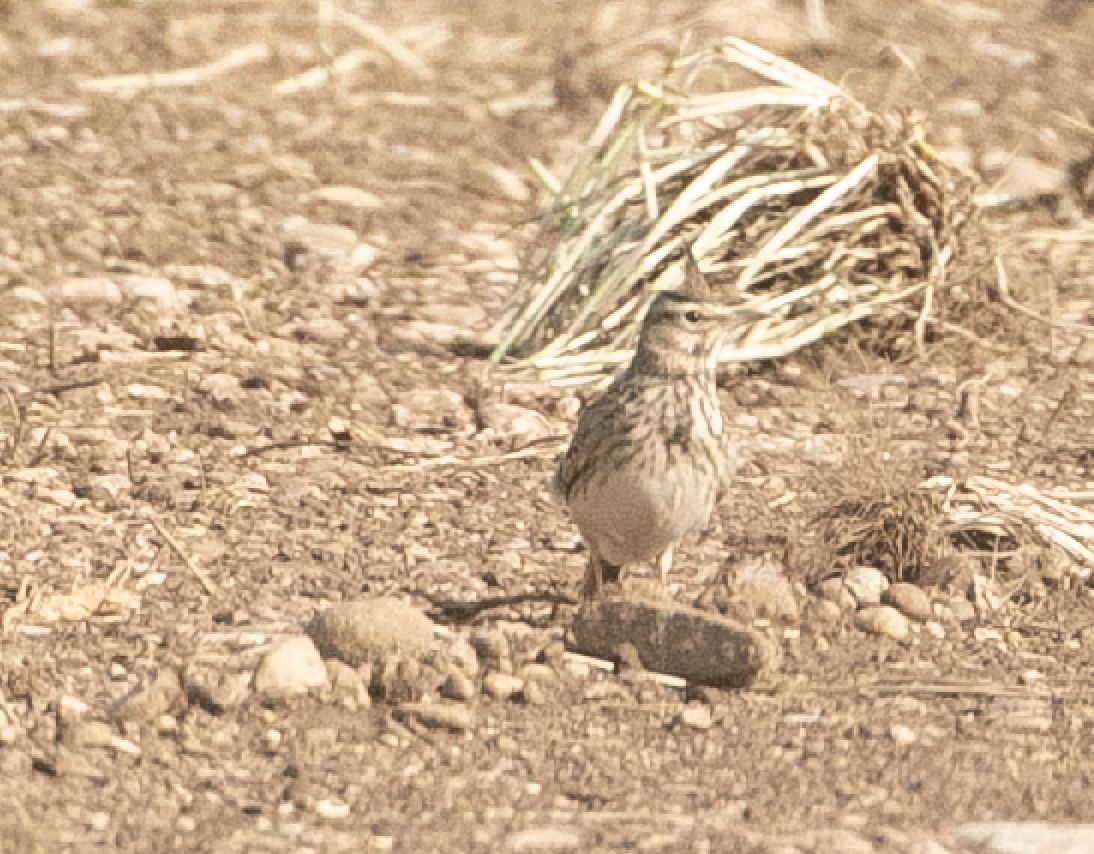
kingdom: Animalia
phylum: Chordata
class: Aves
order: Passeriformes
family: Alaudidae
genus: Galerida
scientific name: Galerida cristata
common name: Crested lark
